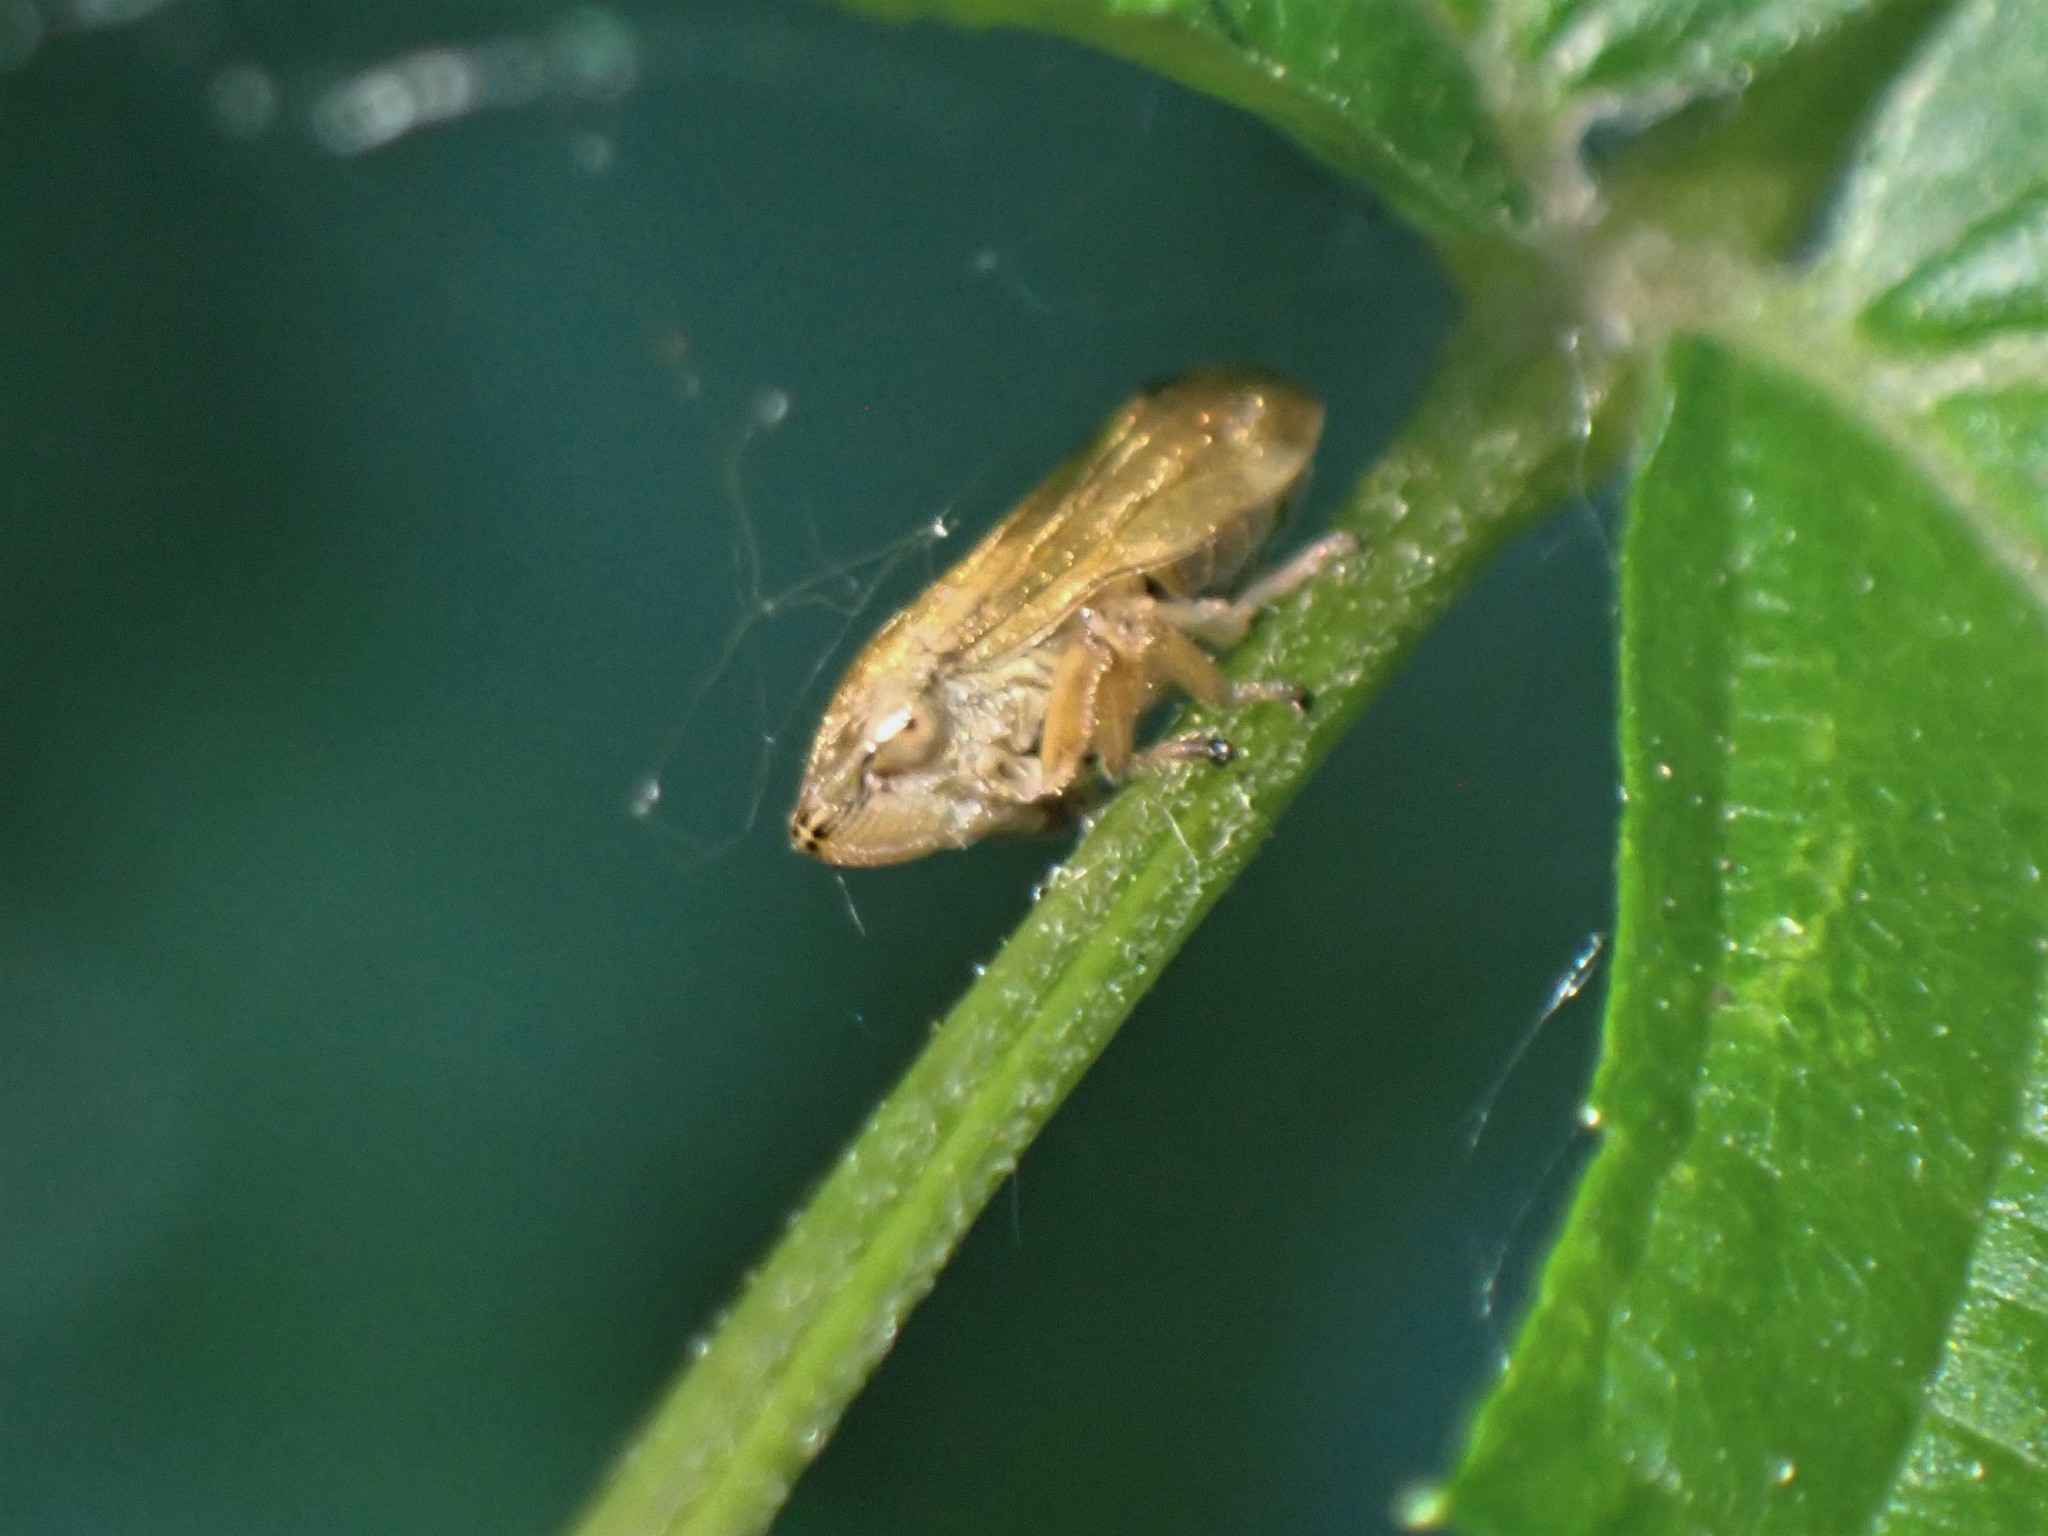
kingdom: Animalia
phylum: Arthropoda
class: Insecta
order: Hemiptera
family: Aphrophoridae
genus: Philaenus
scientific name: Philaenus spumarius
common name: Meadow spittlebug
